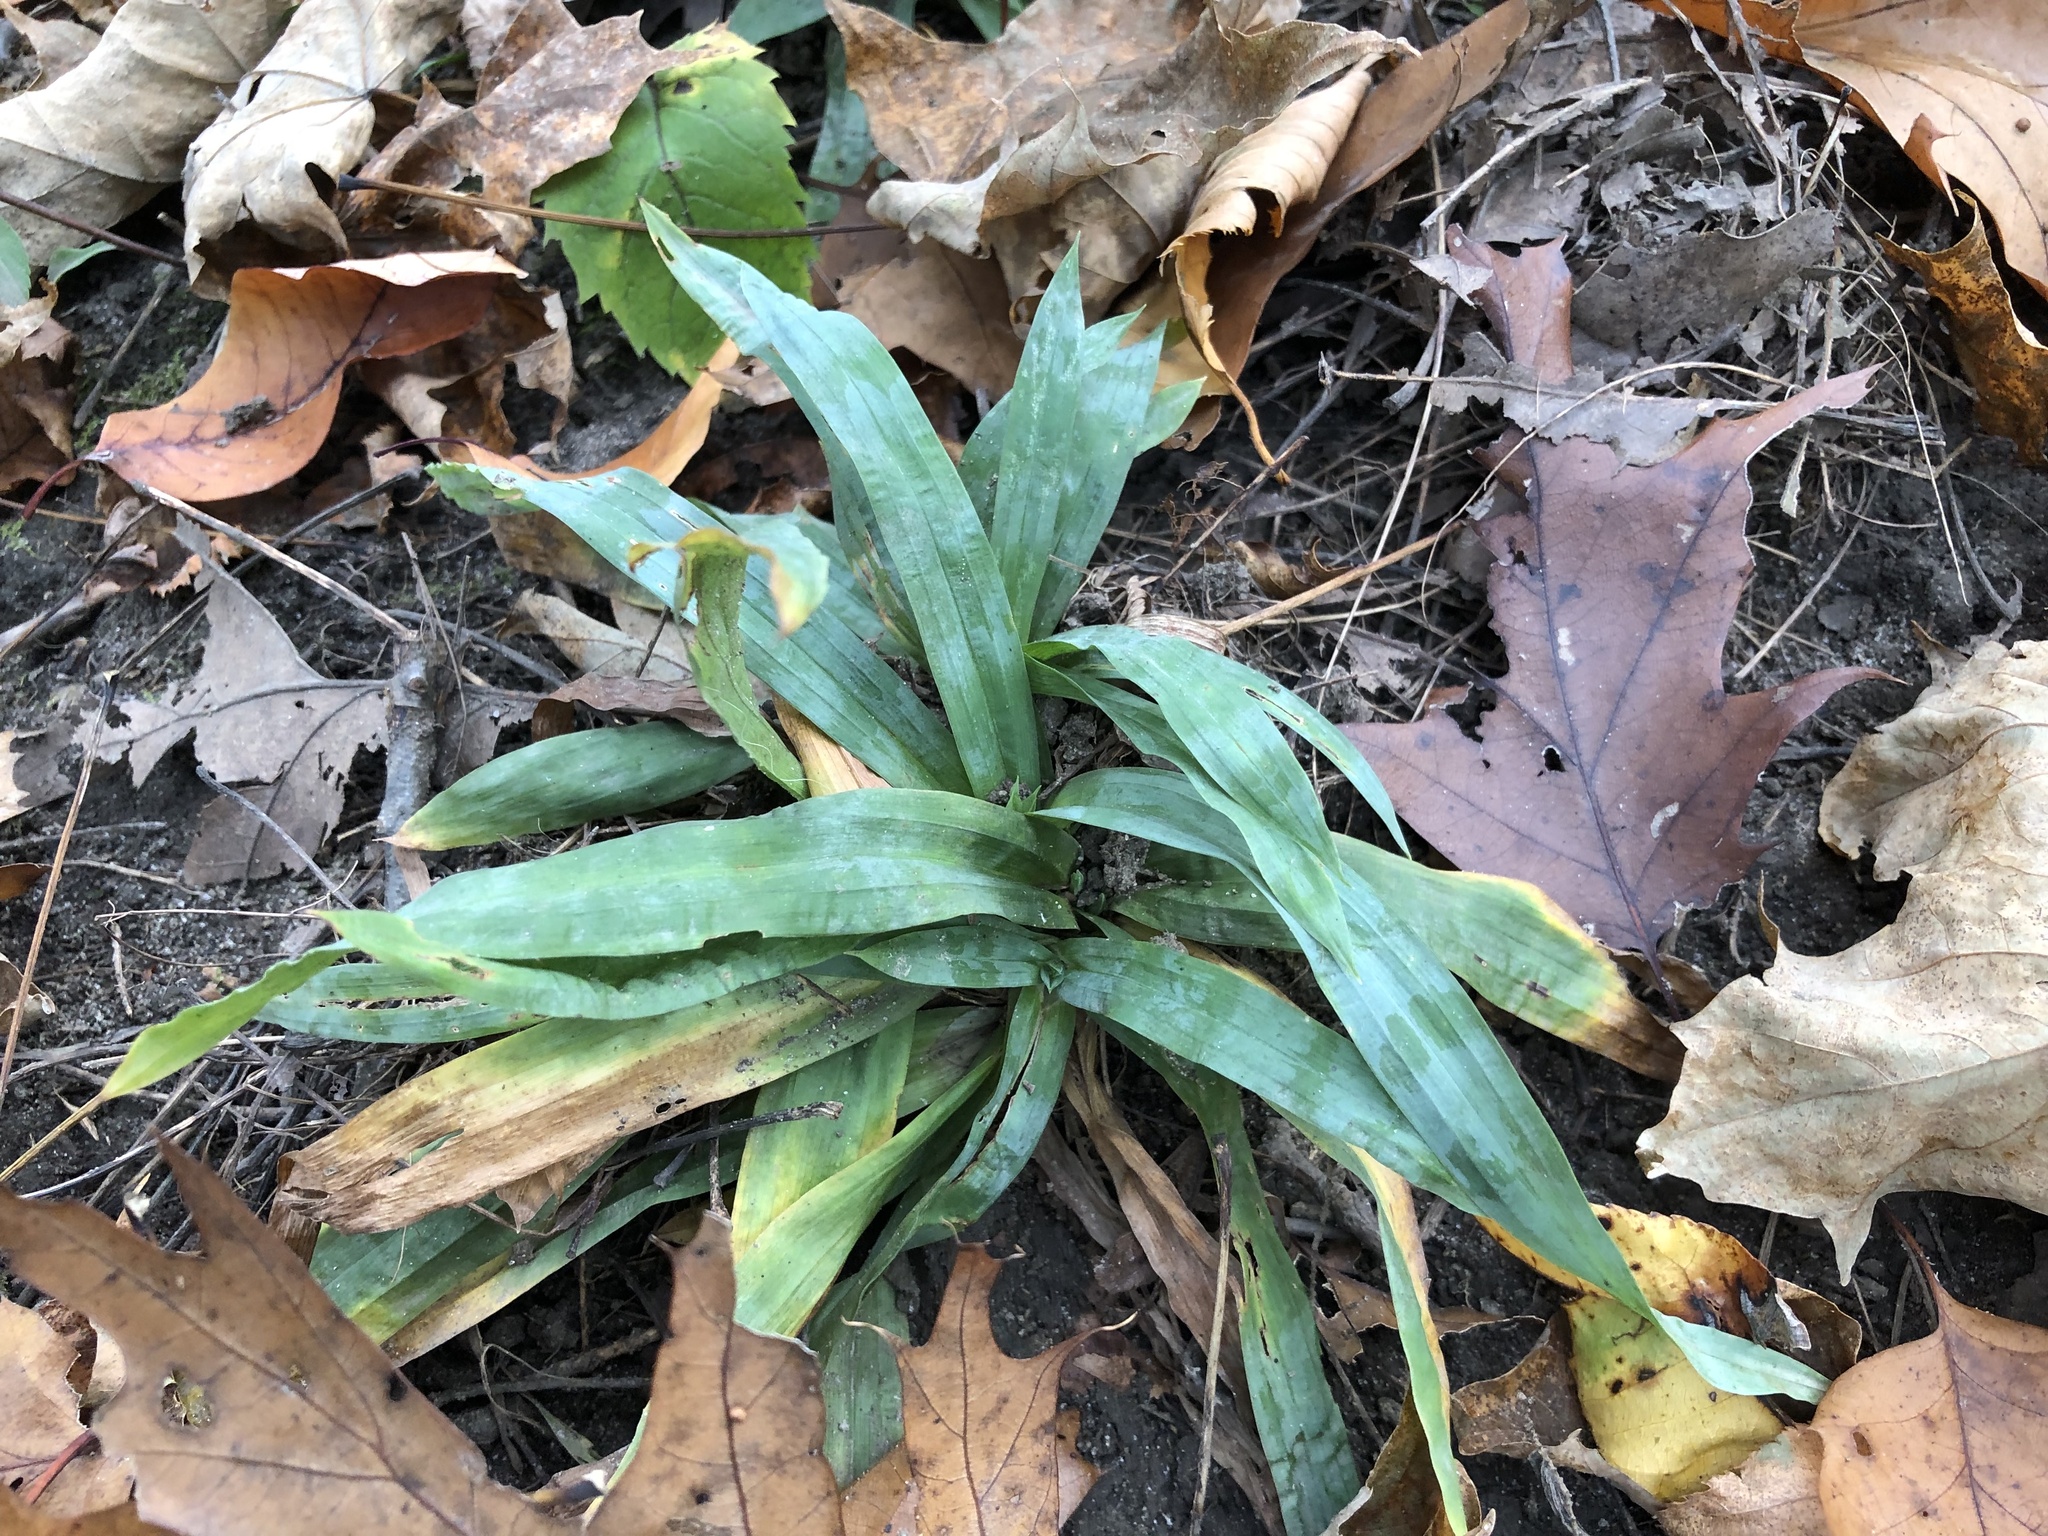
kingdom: Plantae
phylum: Tracheophyta
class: Liliopsida
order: Poales
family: Cyperaceae
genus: Carex
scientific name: Carex platyphylla
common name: Broad-leaved sedge
